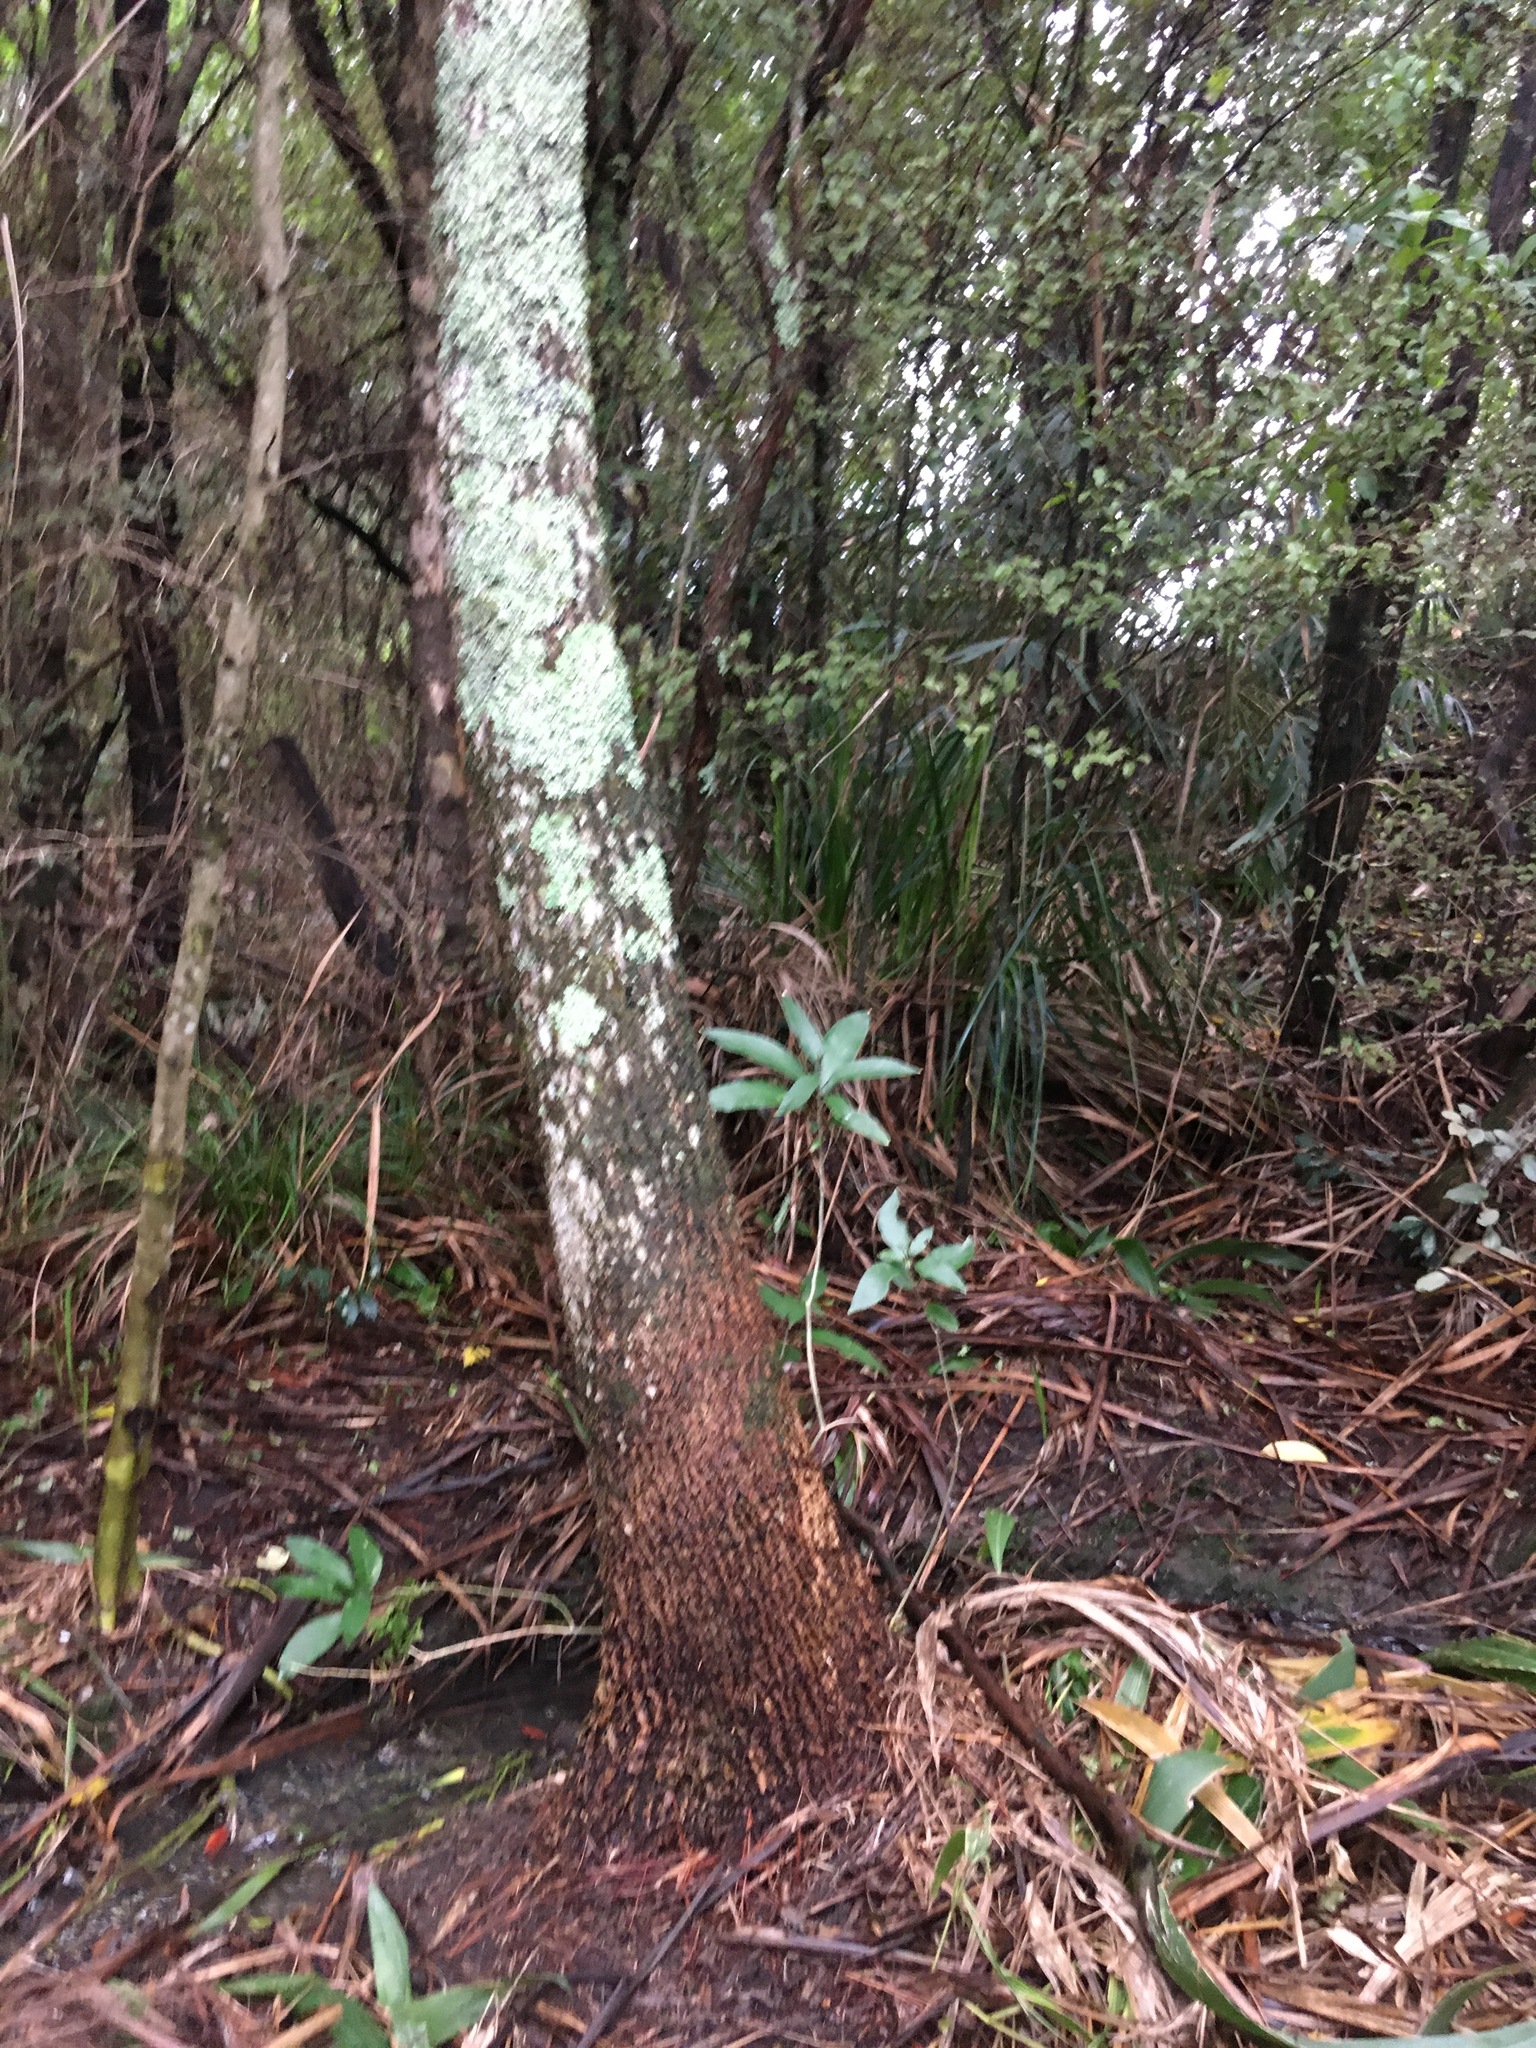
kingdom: Plantae
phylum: Tracheophyta
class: Liliopsida
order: Asparagales
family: Asparagaceae
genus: Cordyline
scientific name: Cordyline australis
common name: Cabbage-palm
